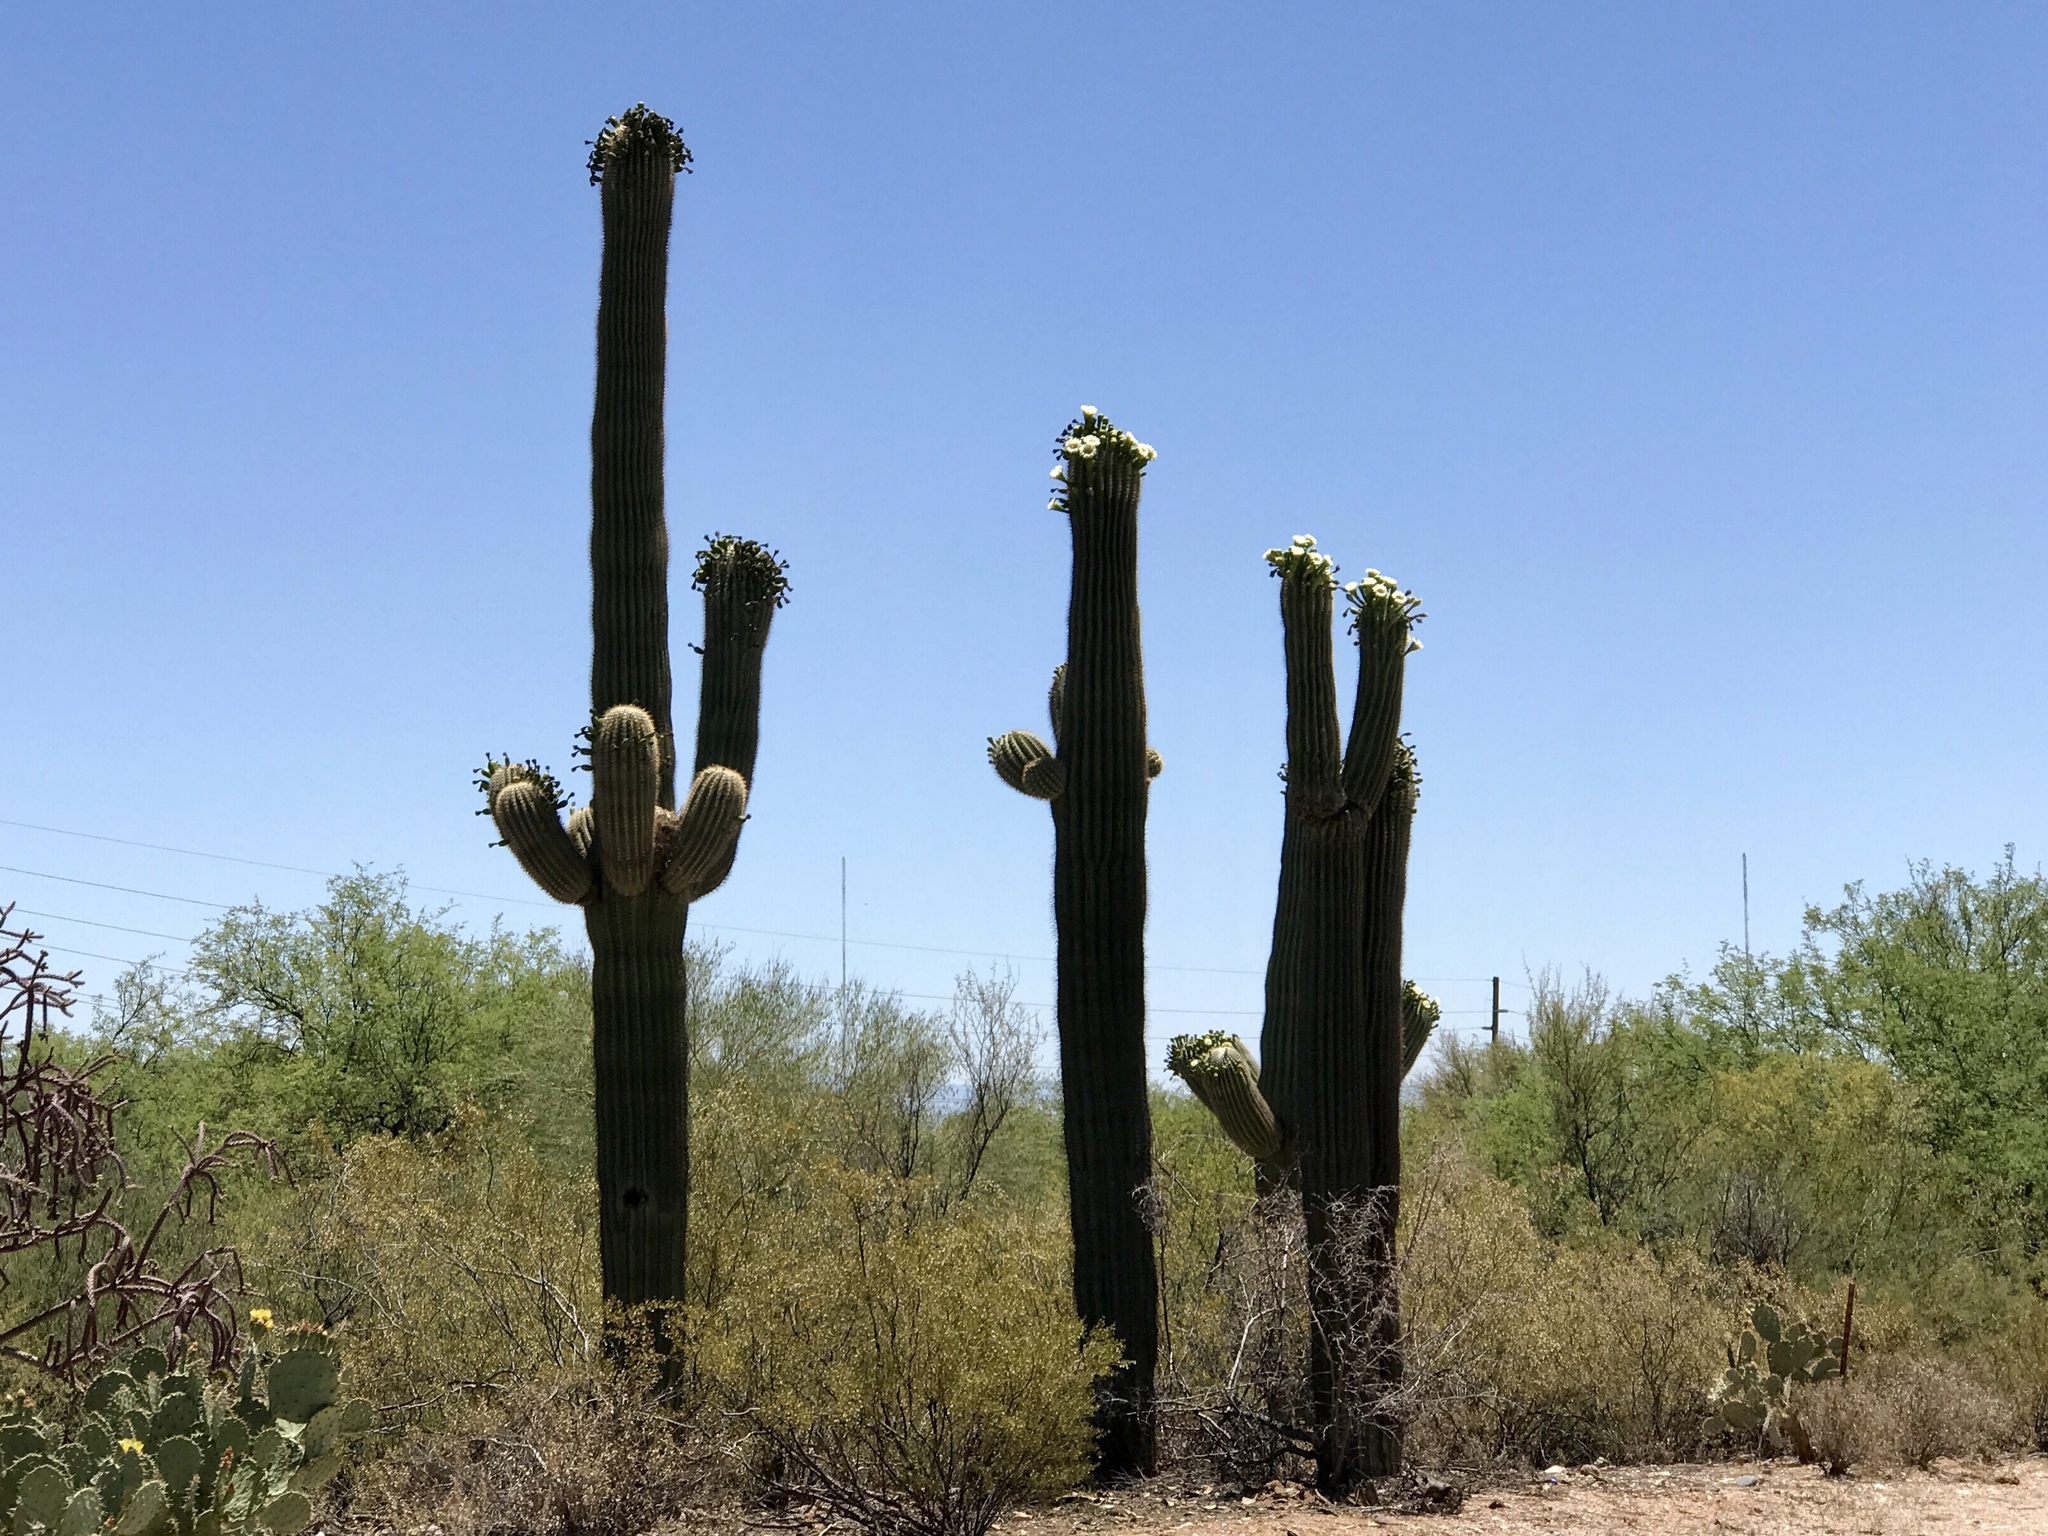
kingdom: Plantae
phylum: Tracheophyta
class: Magnoliopsida
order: Caryophyllales
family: Cactaceae
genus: Carnegiea
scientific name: Carnegiea gigantea
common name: Saguaro
